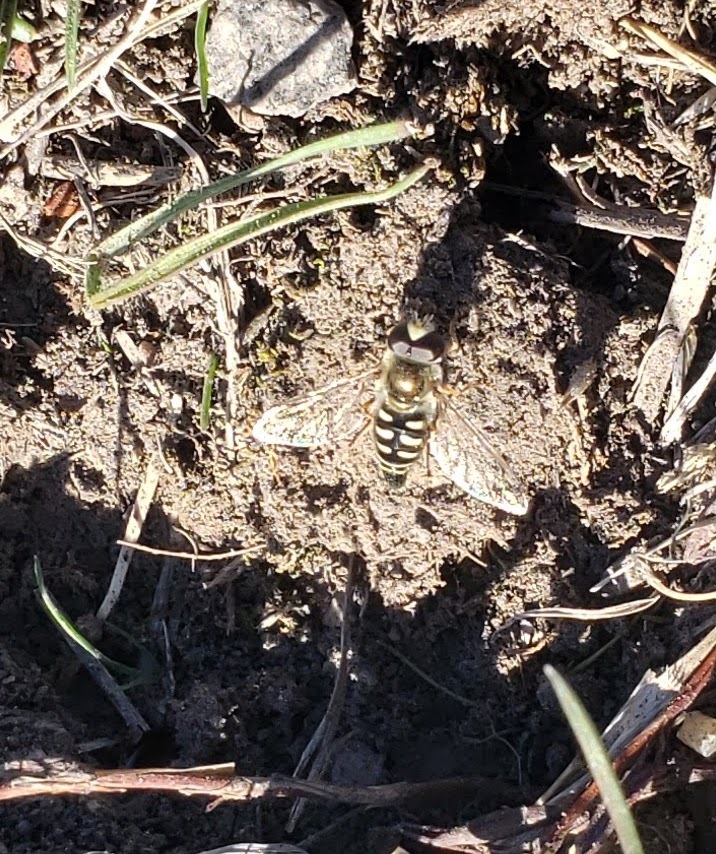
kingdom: Animalia
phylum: Arthropoda
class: Insecta
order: Diptera
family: Syrphidae
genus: Eupeodes
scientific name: Eupeodes volucris
